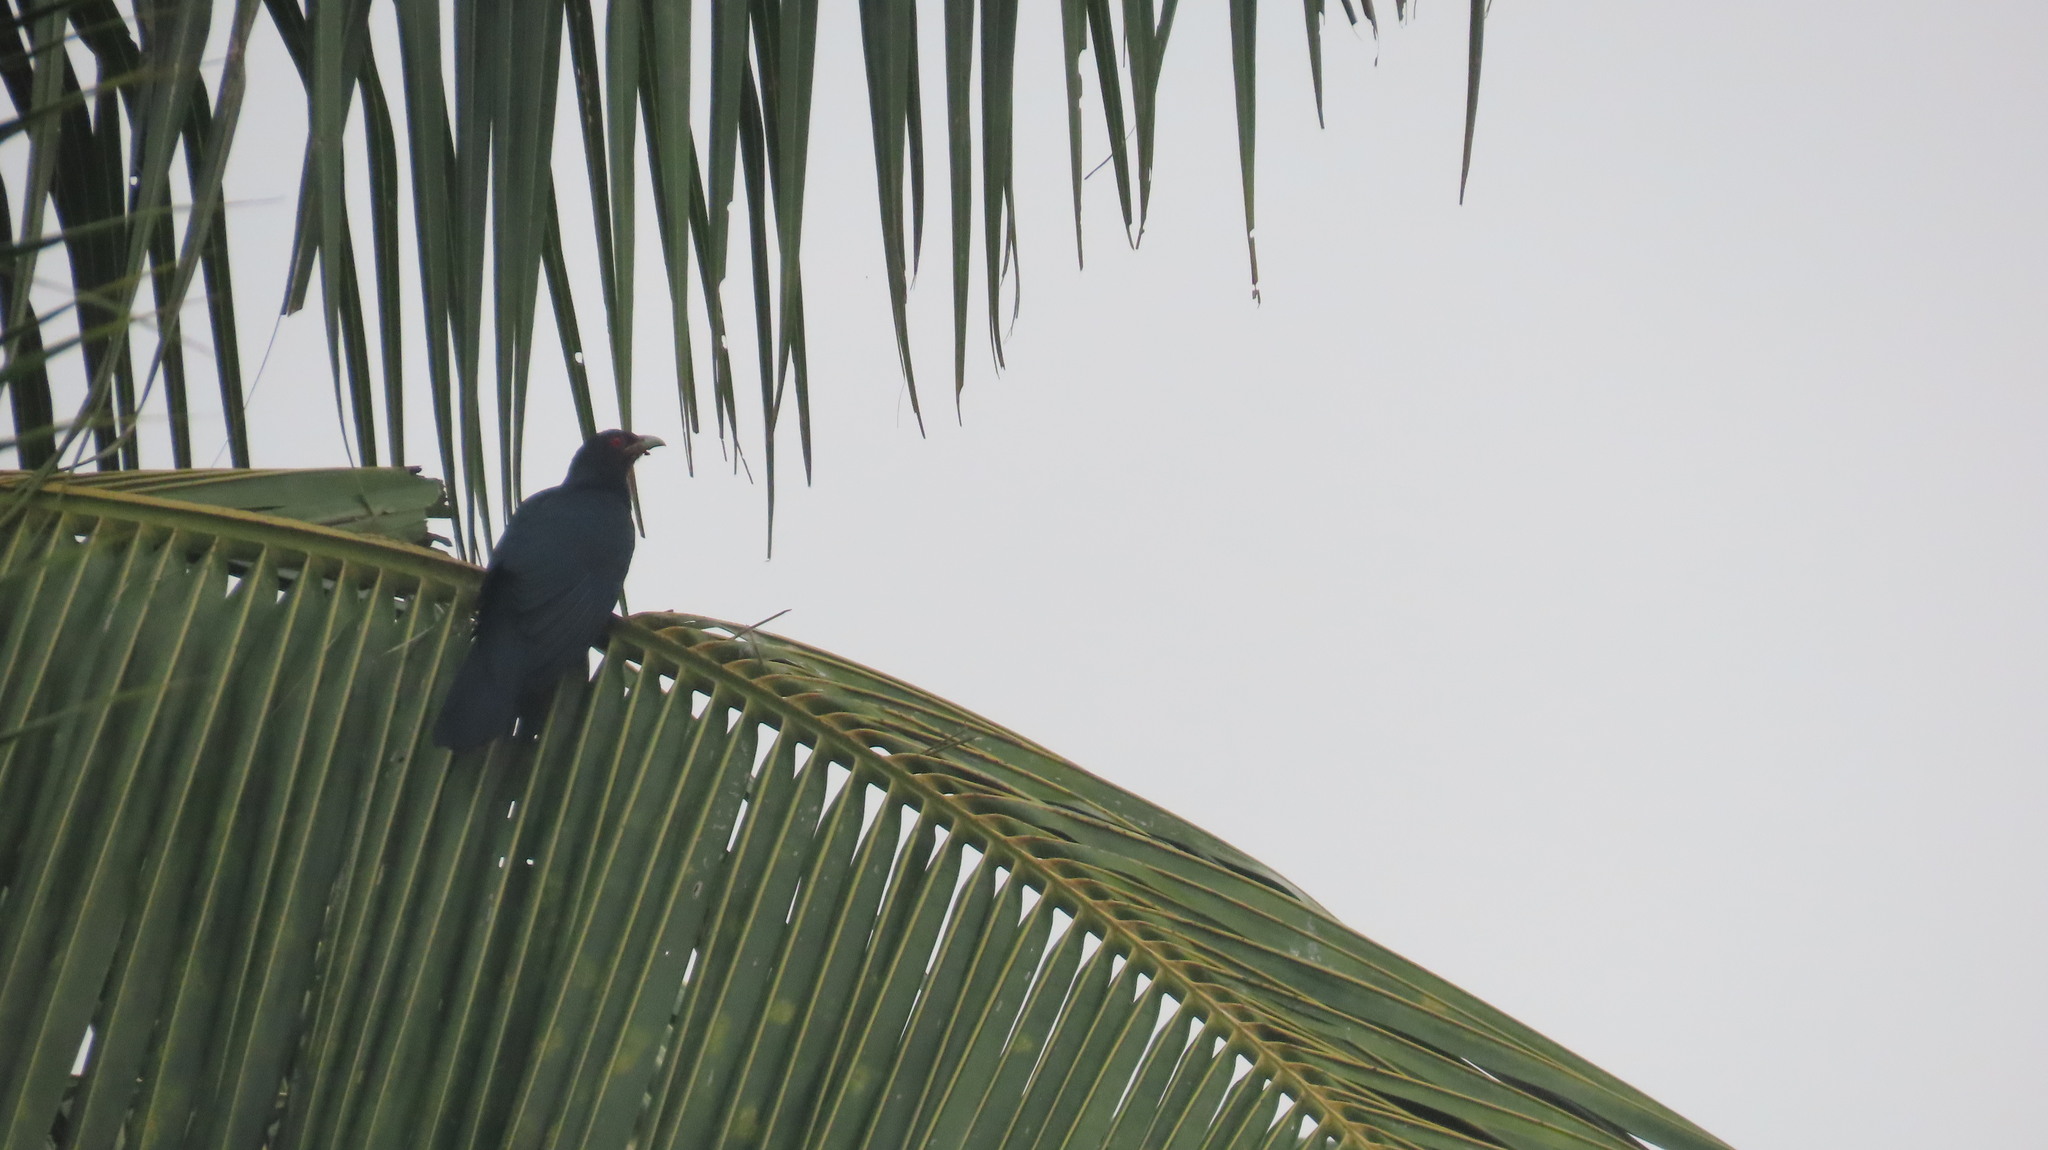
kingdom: Animalia
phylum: Chordata
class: Aves
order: Cuculiformes
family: Cuculidae
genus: Eudynamys
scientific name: Eudynamys scolopaceus
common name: Asian koel
